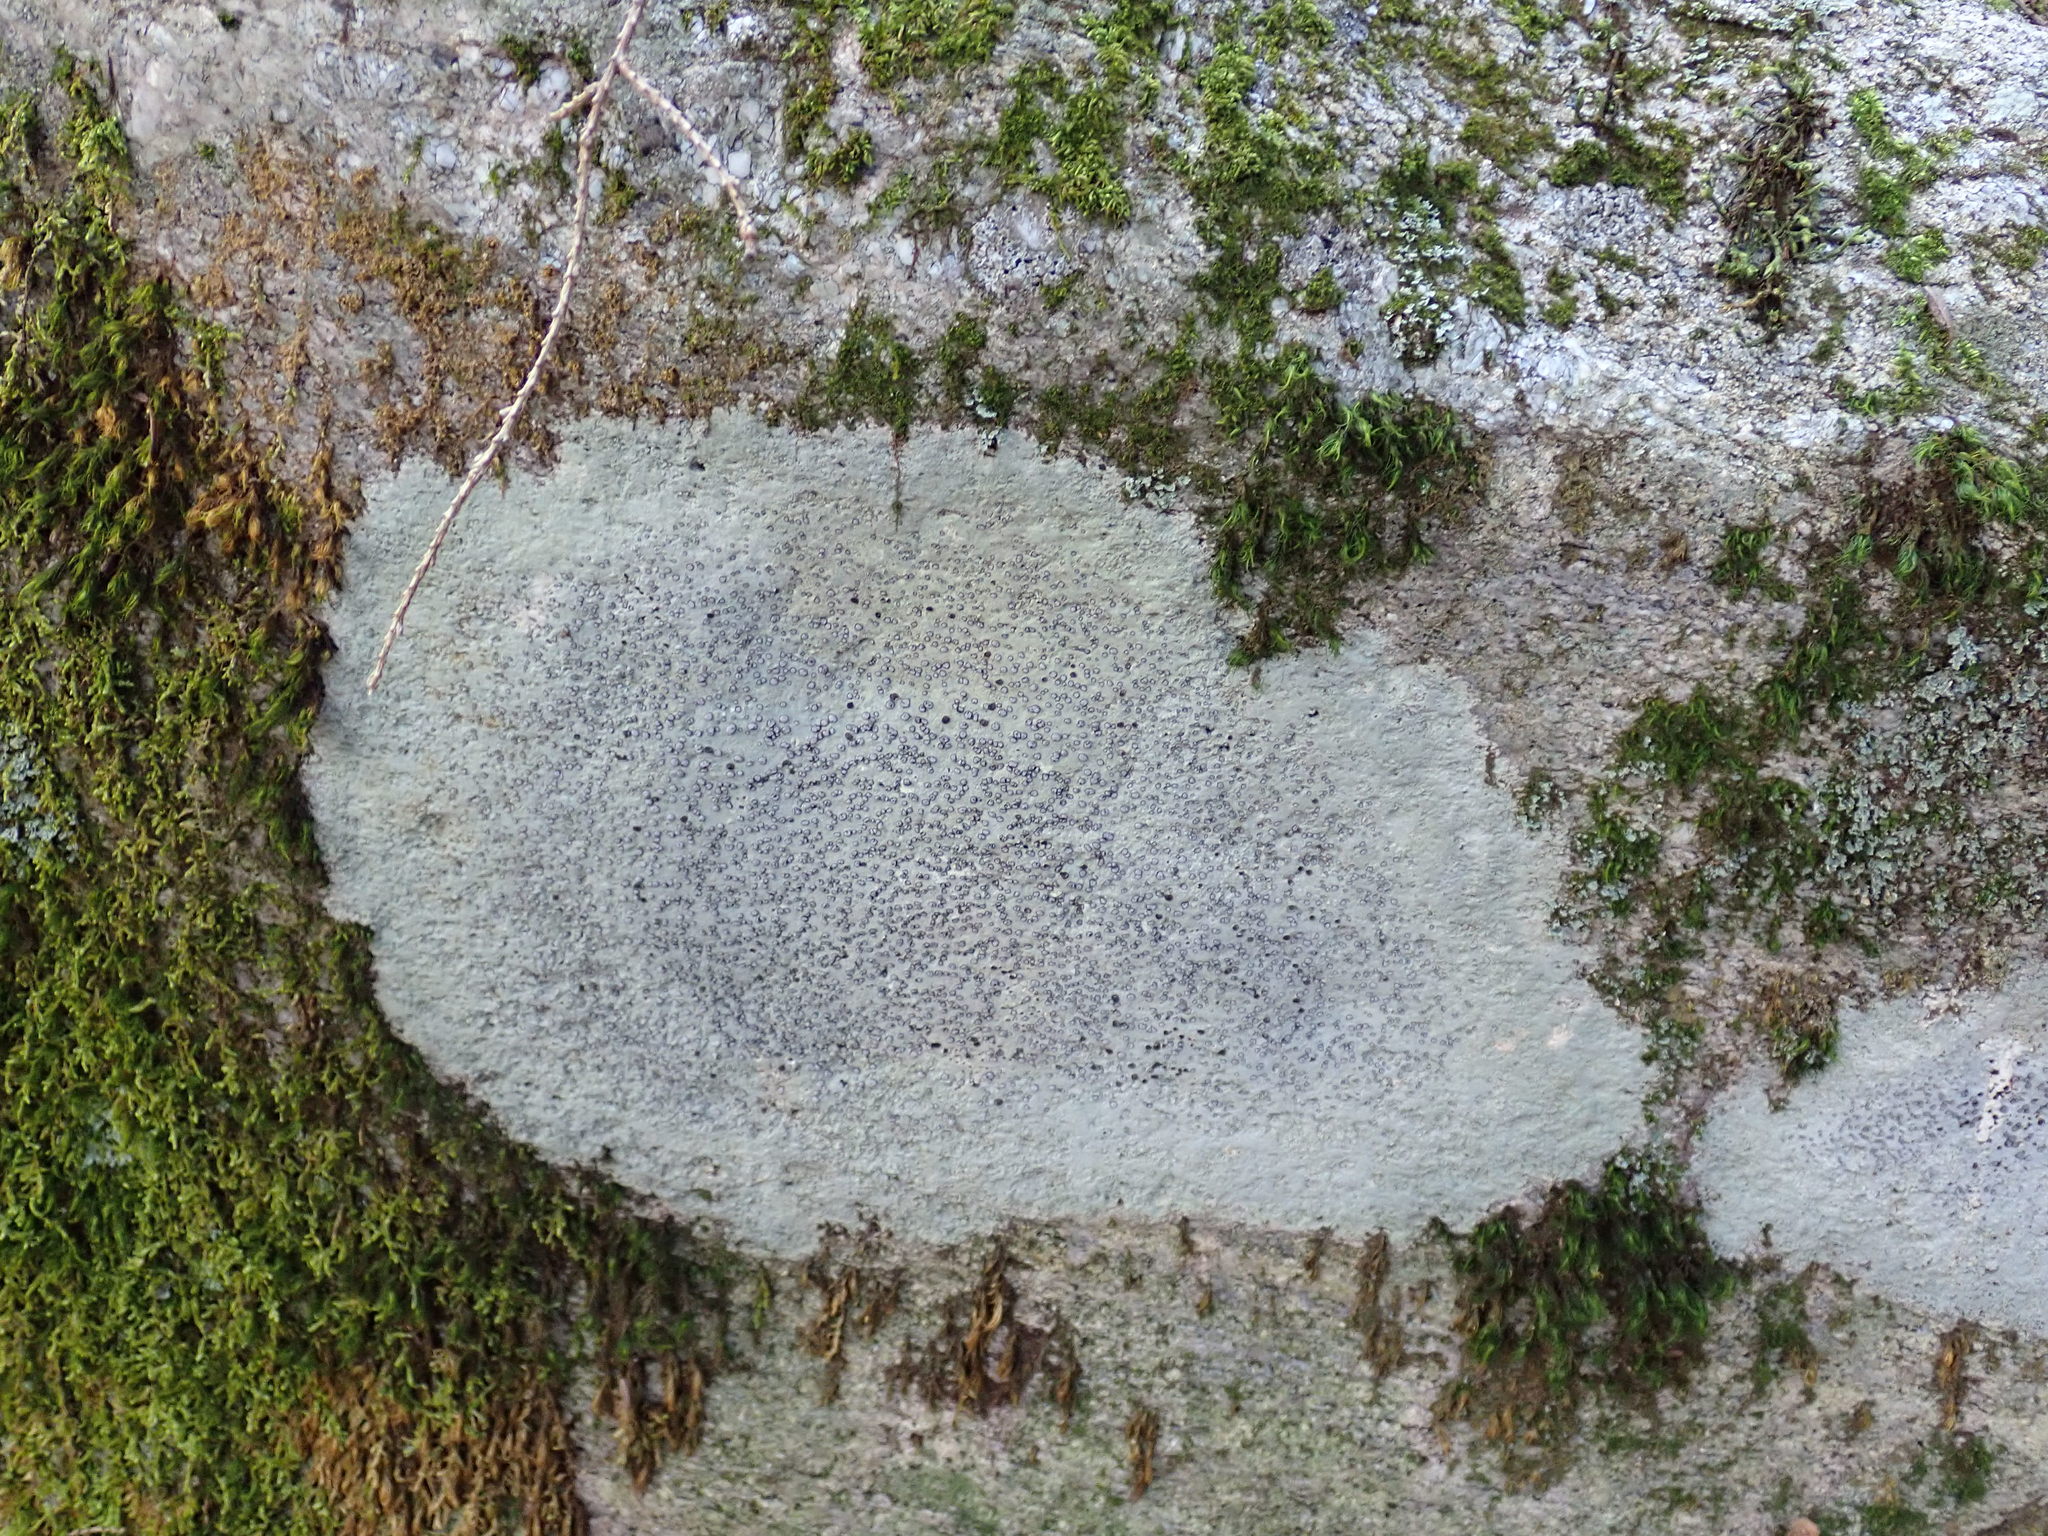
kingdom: Fungi
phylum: Ascomycota
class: Lecanoromycetes
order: Lecideales
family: Lecideaceae
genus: Porpidia
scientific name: Porpidia albocaerulescens
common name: Smokey-eyed boulder lichen
